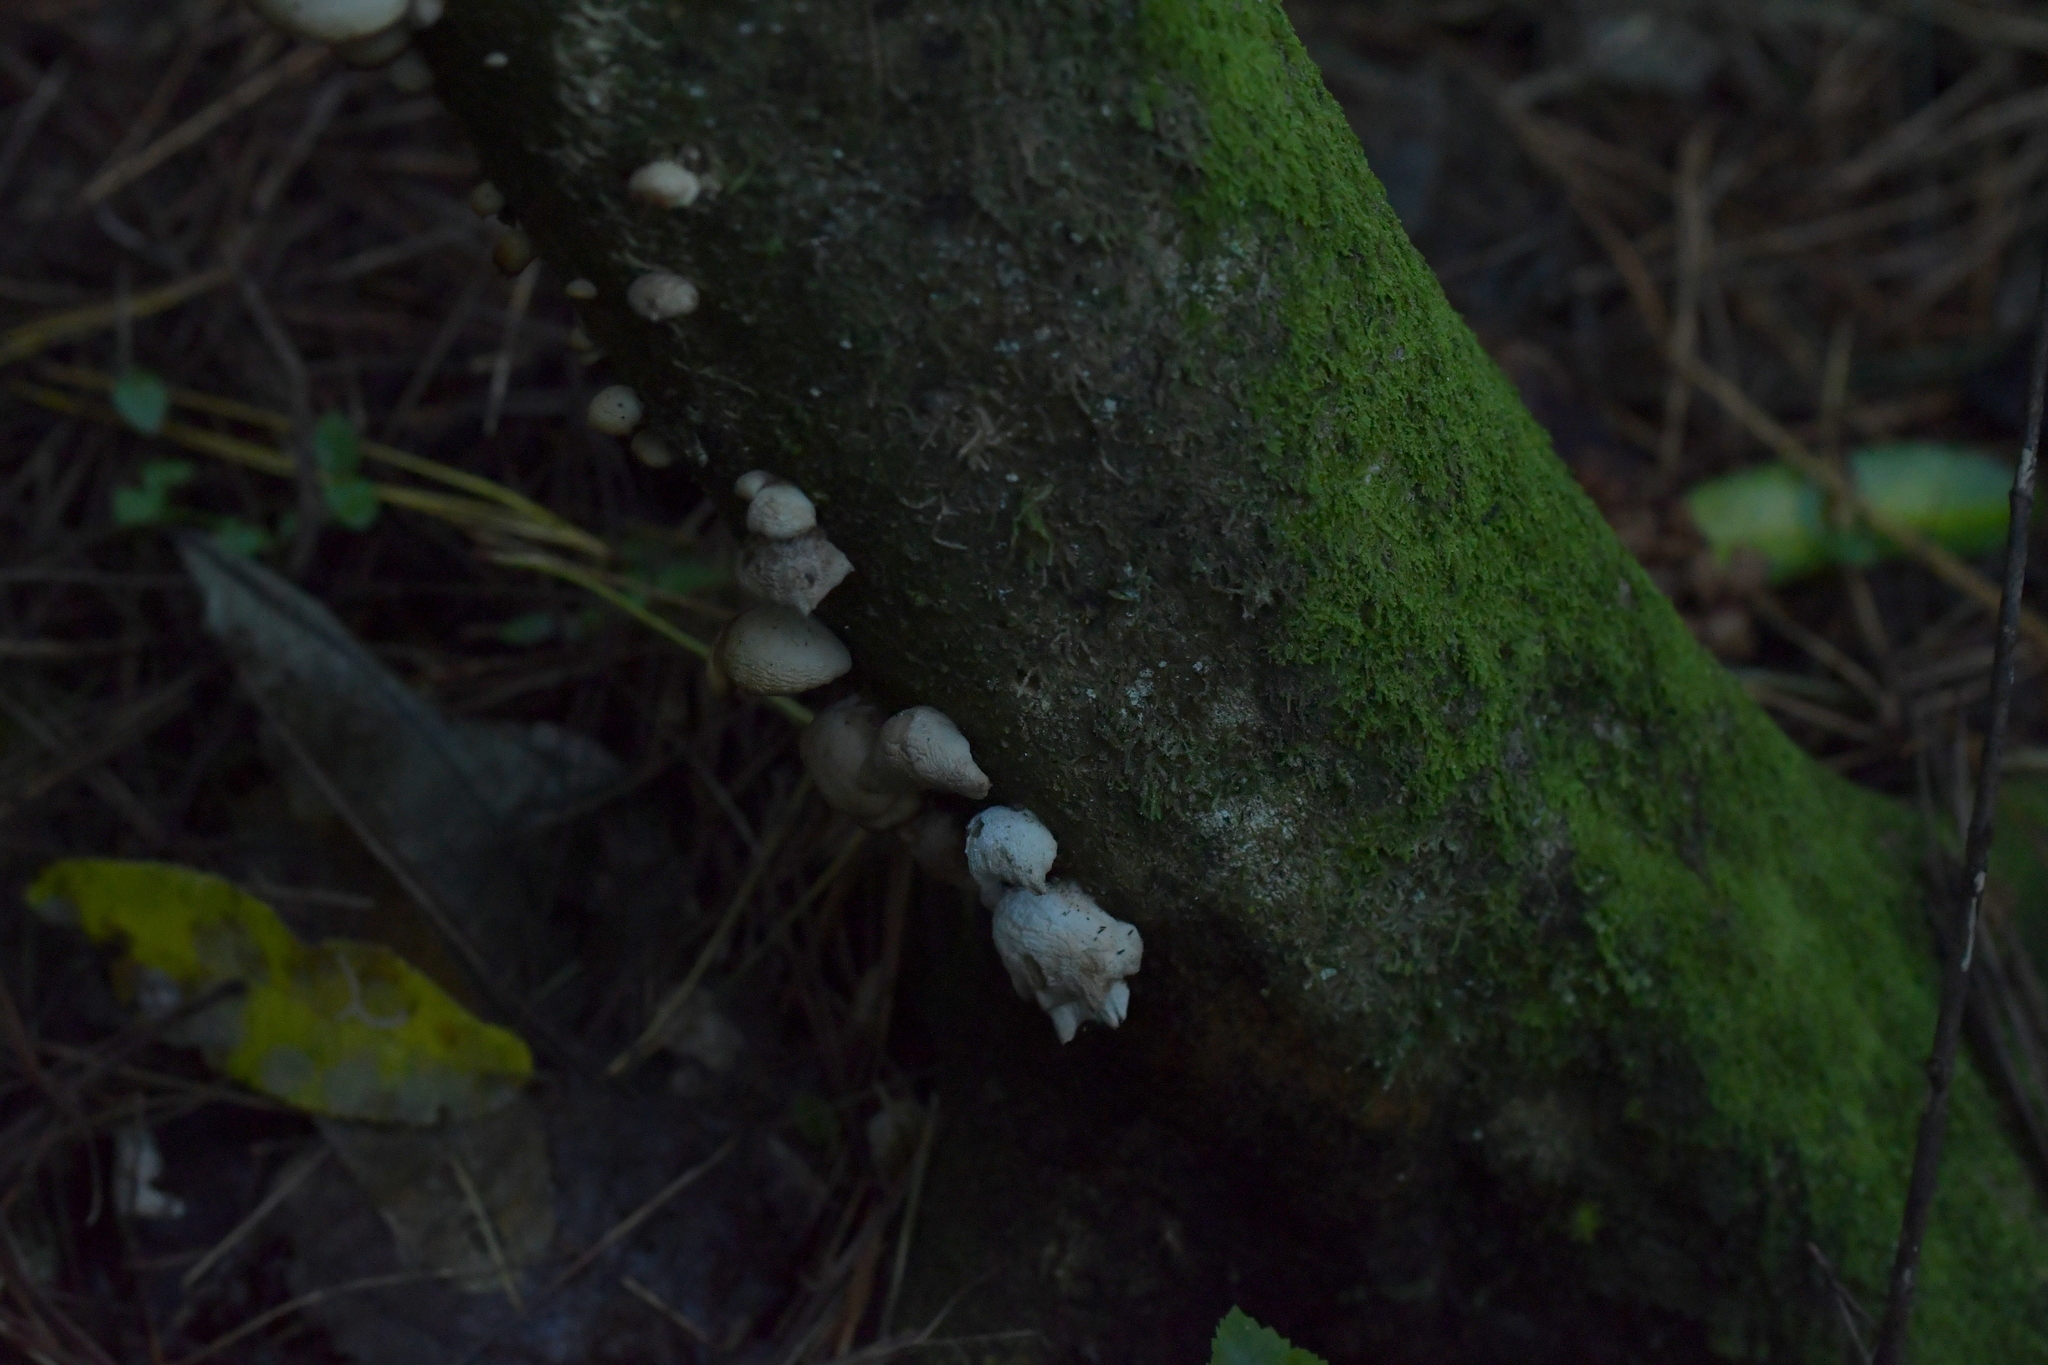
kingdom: Fungi
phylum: Basidiomycota
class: Agaricomycetes
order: Agaricales
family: Tricholomataceae
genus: Conchomyces
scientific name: Conchomyces bursiformis
